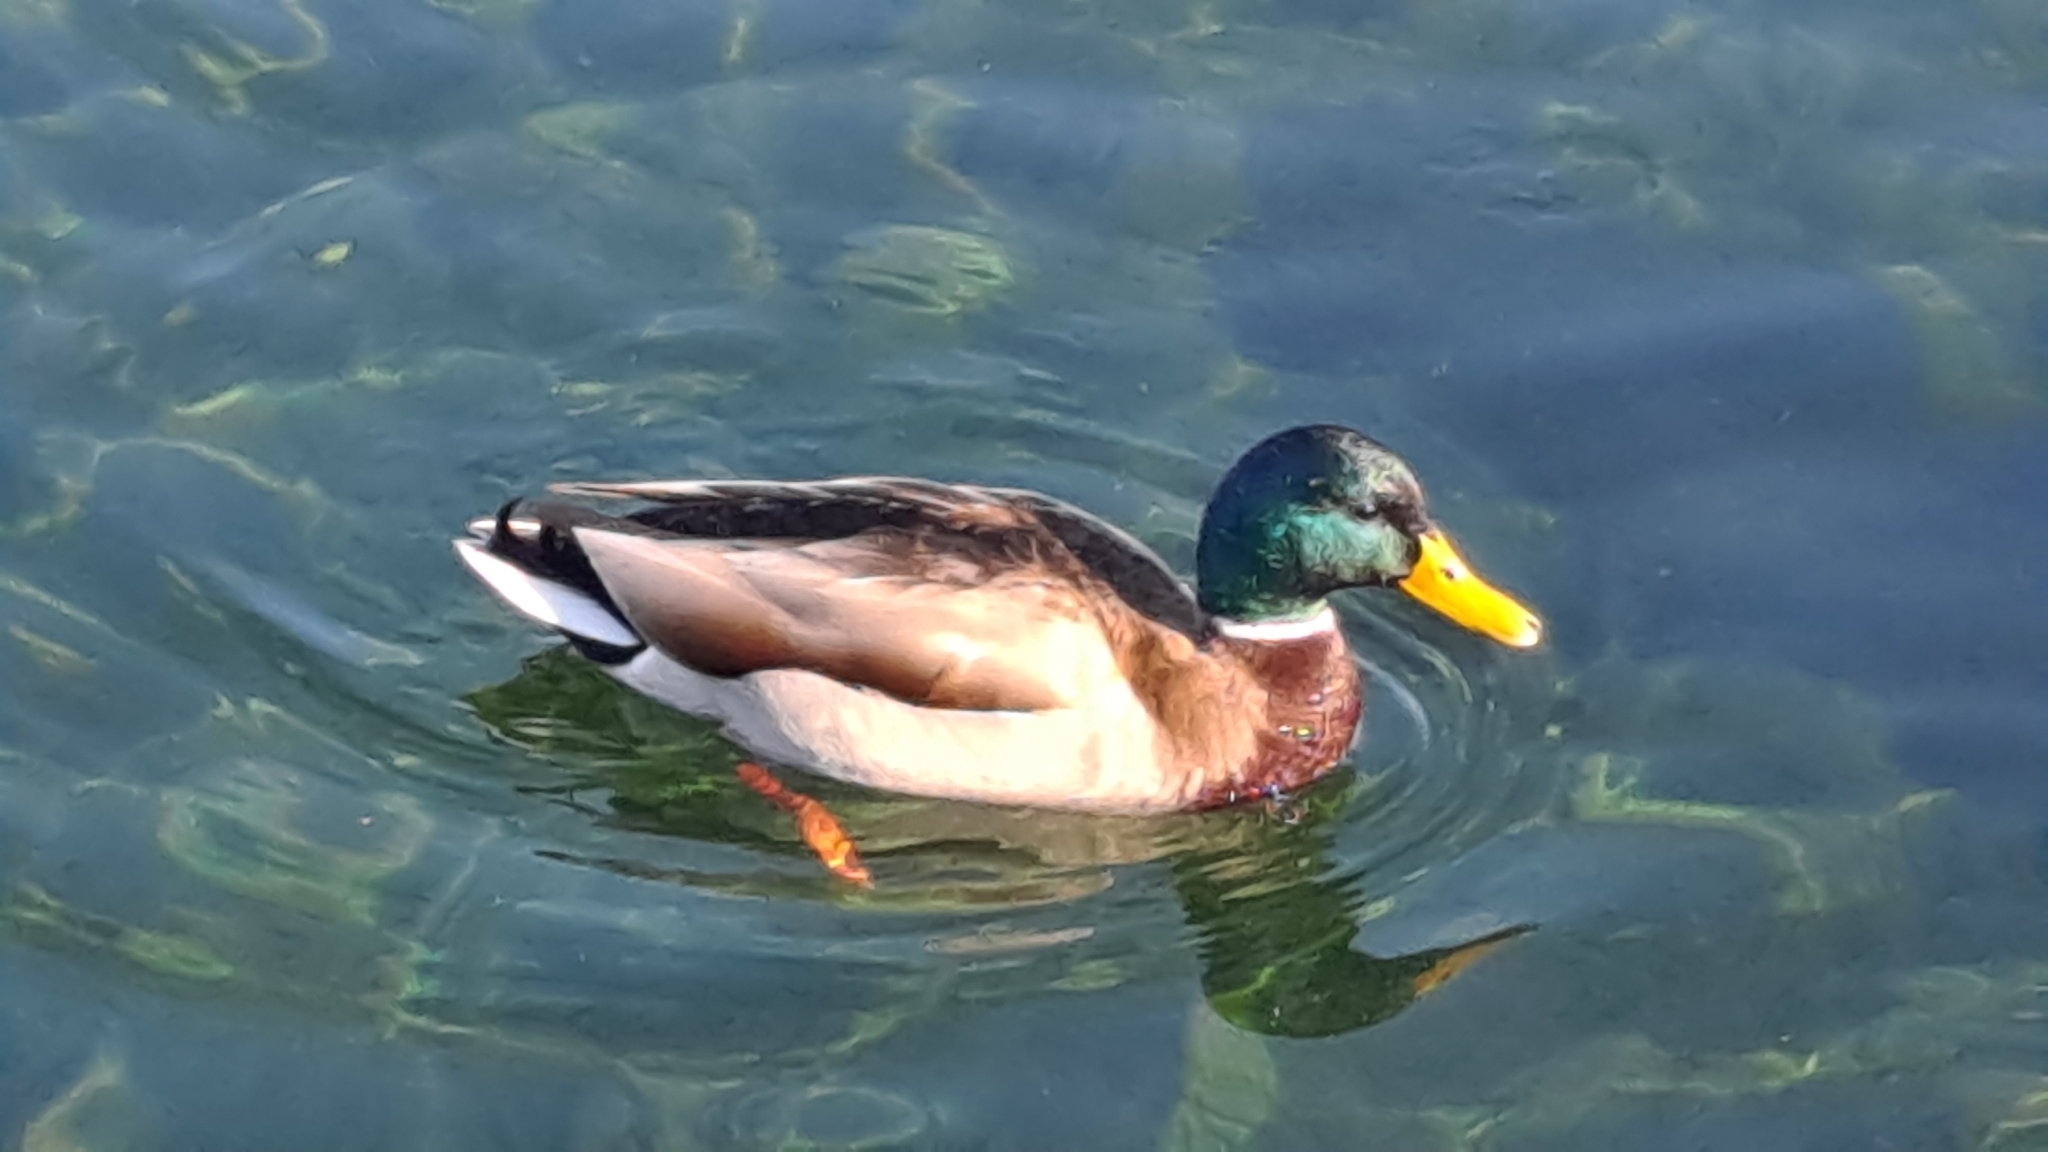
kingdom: Animalia
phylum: Chordata
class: Aves
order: Anseriformes
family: Anatidae
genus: Anas
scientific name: Anas platyrhynchos
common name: Mallard
